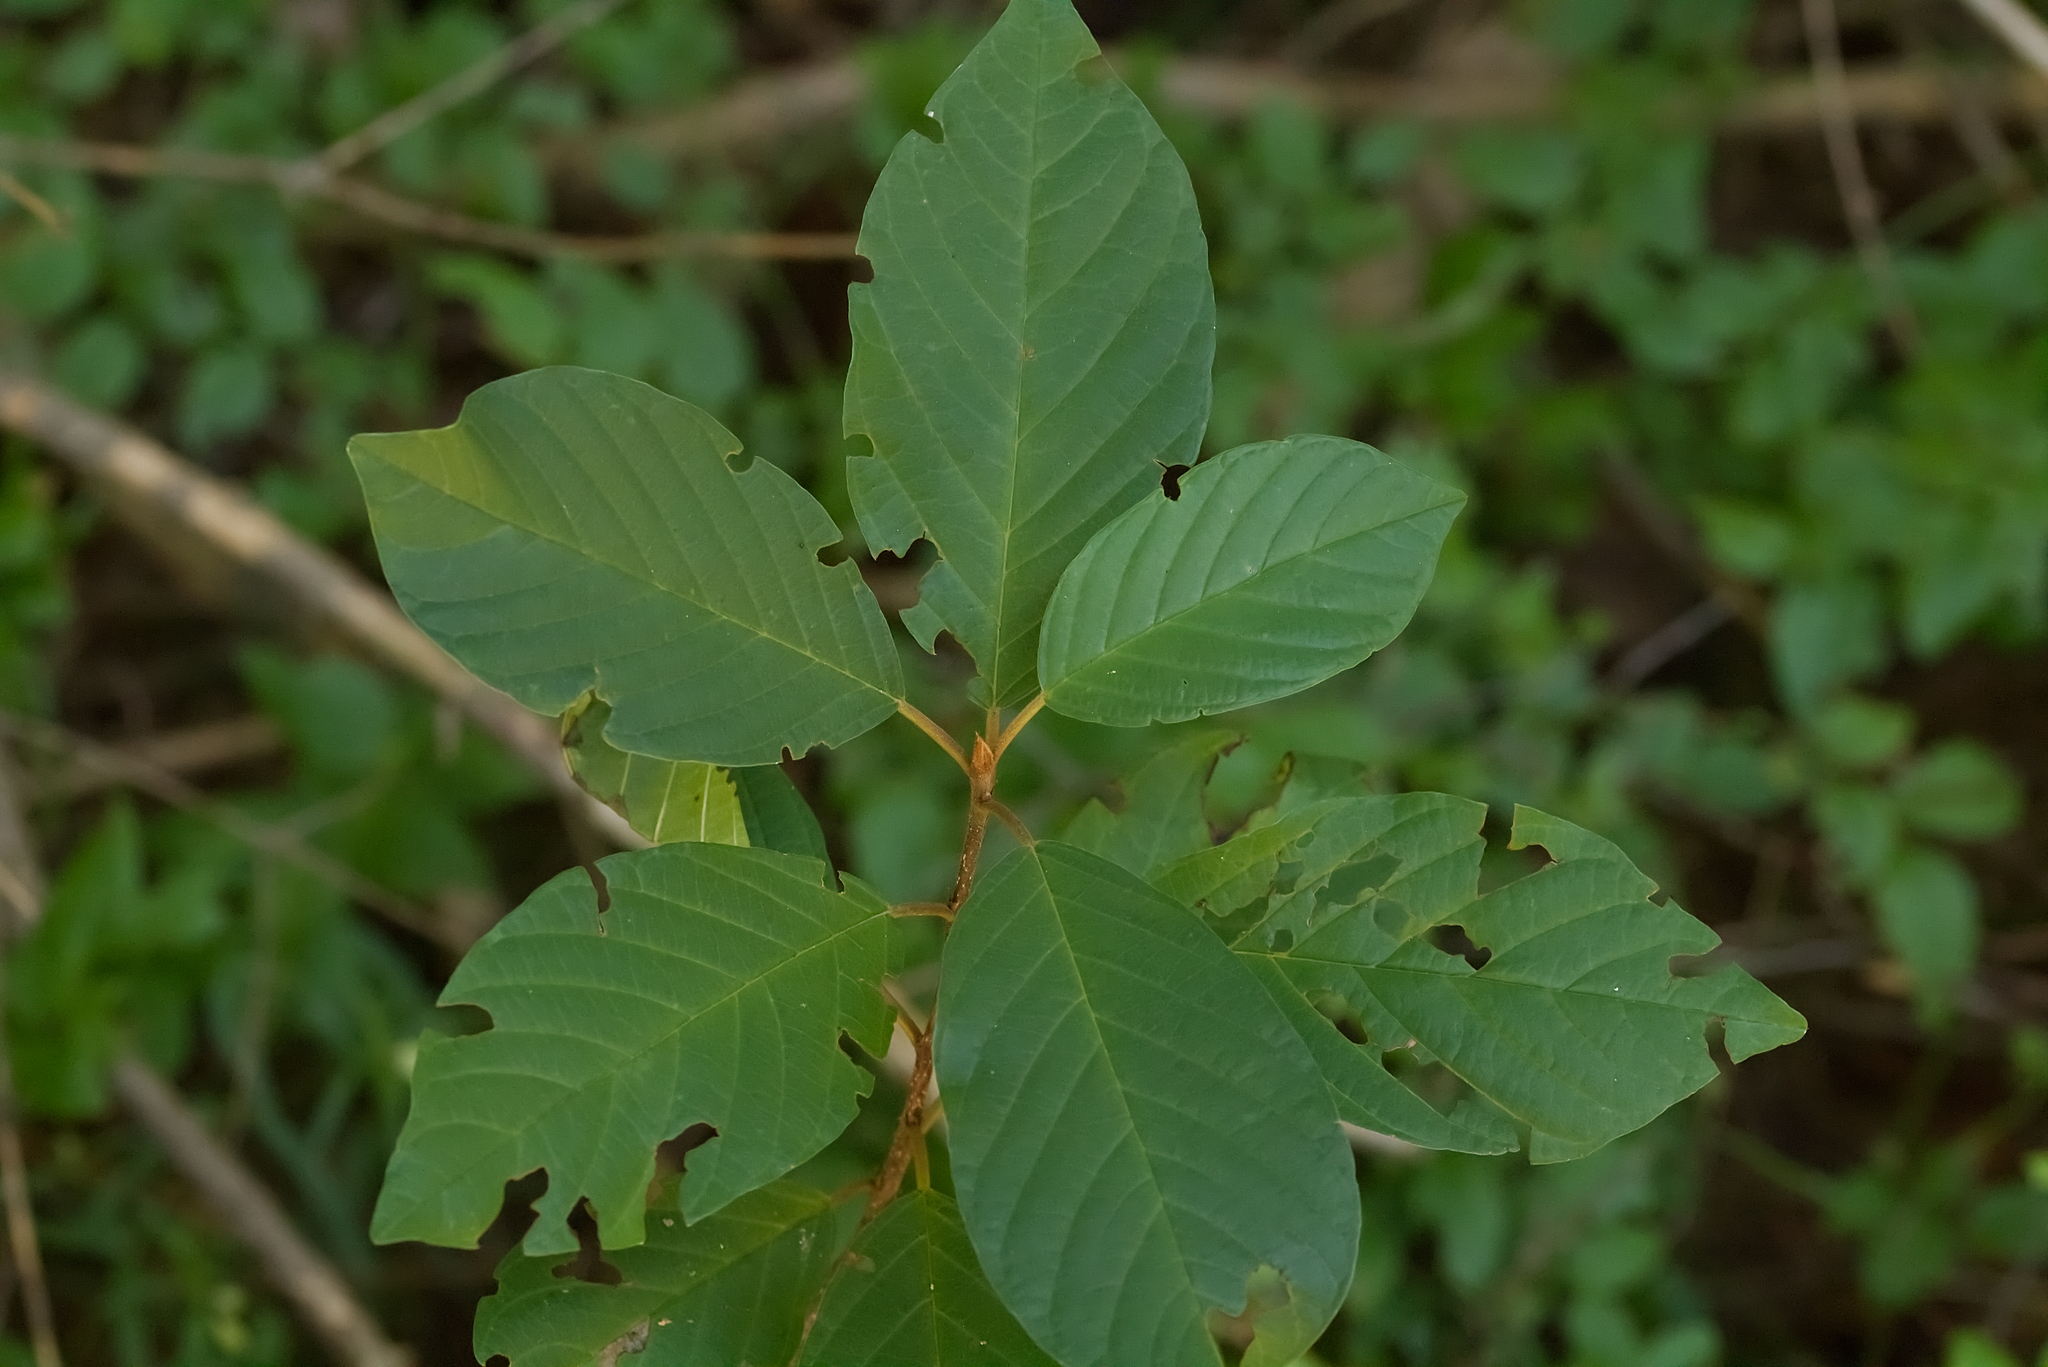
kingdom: Plantae
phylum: Tracheophyta
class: Magnoliopsida
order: Rosales
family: Rhamnaceae
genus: Frangula
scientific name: Frangula alnus
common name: Alder buckthorn
